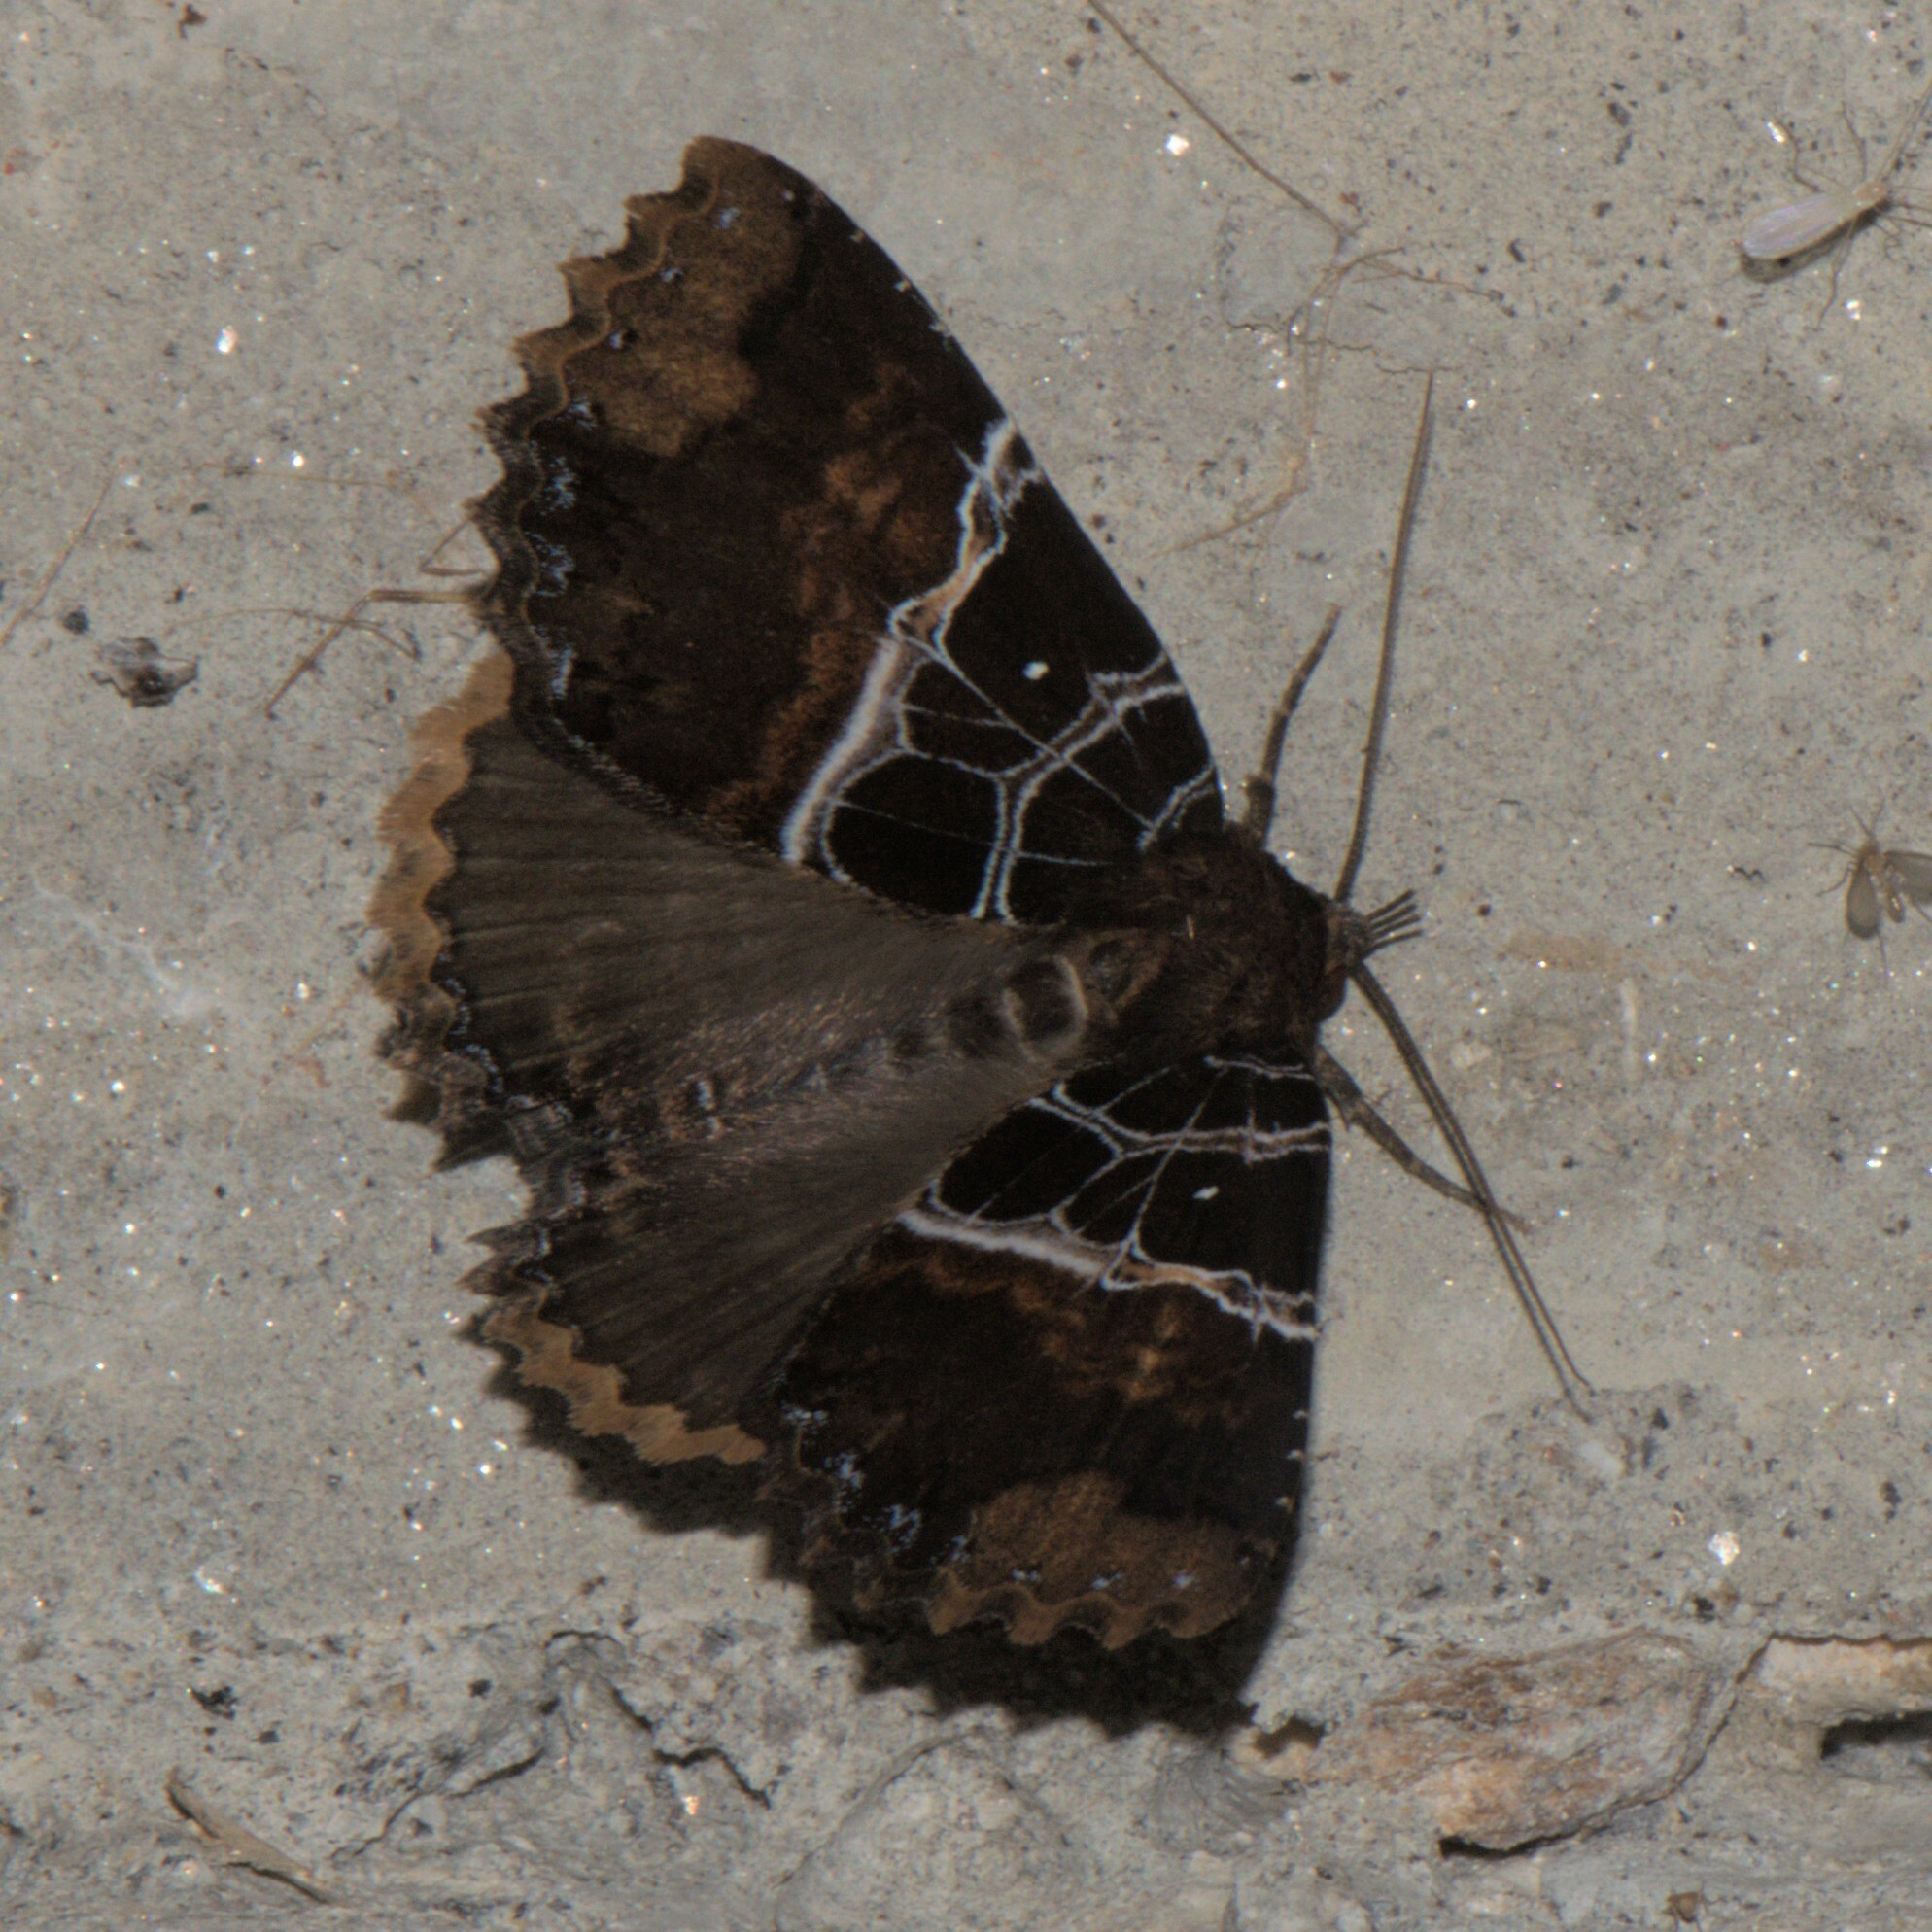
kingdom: Animalia
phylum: Arthropoda
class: Insecta
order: Lepidoptera
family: Erebidae
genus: Sypnoides
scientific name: Sypnoides
